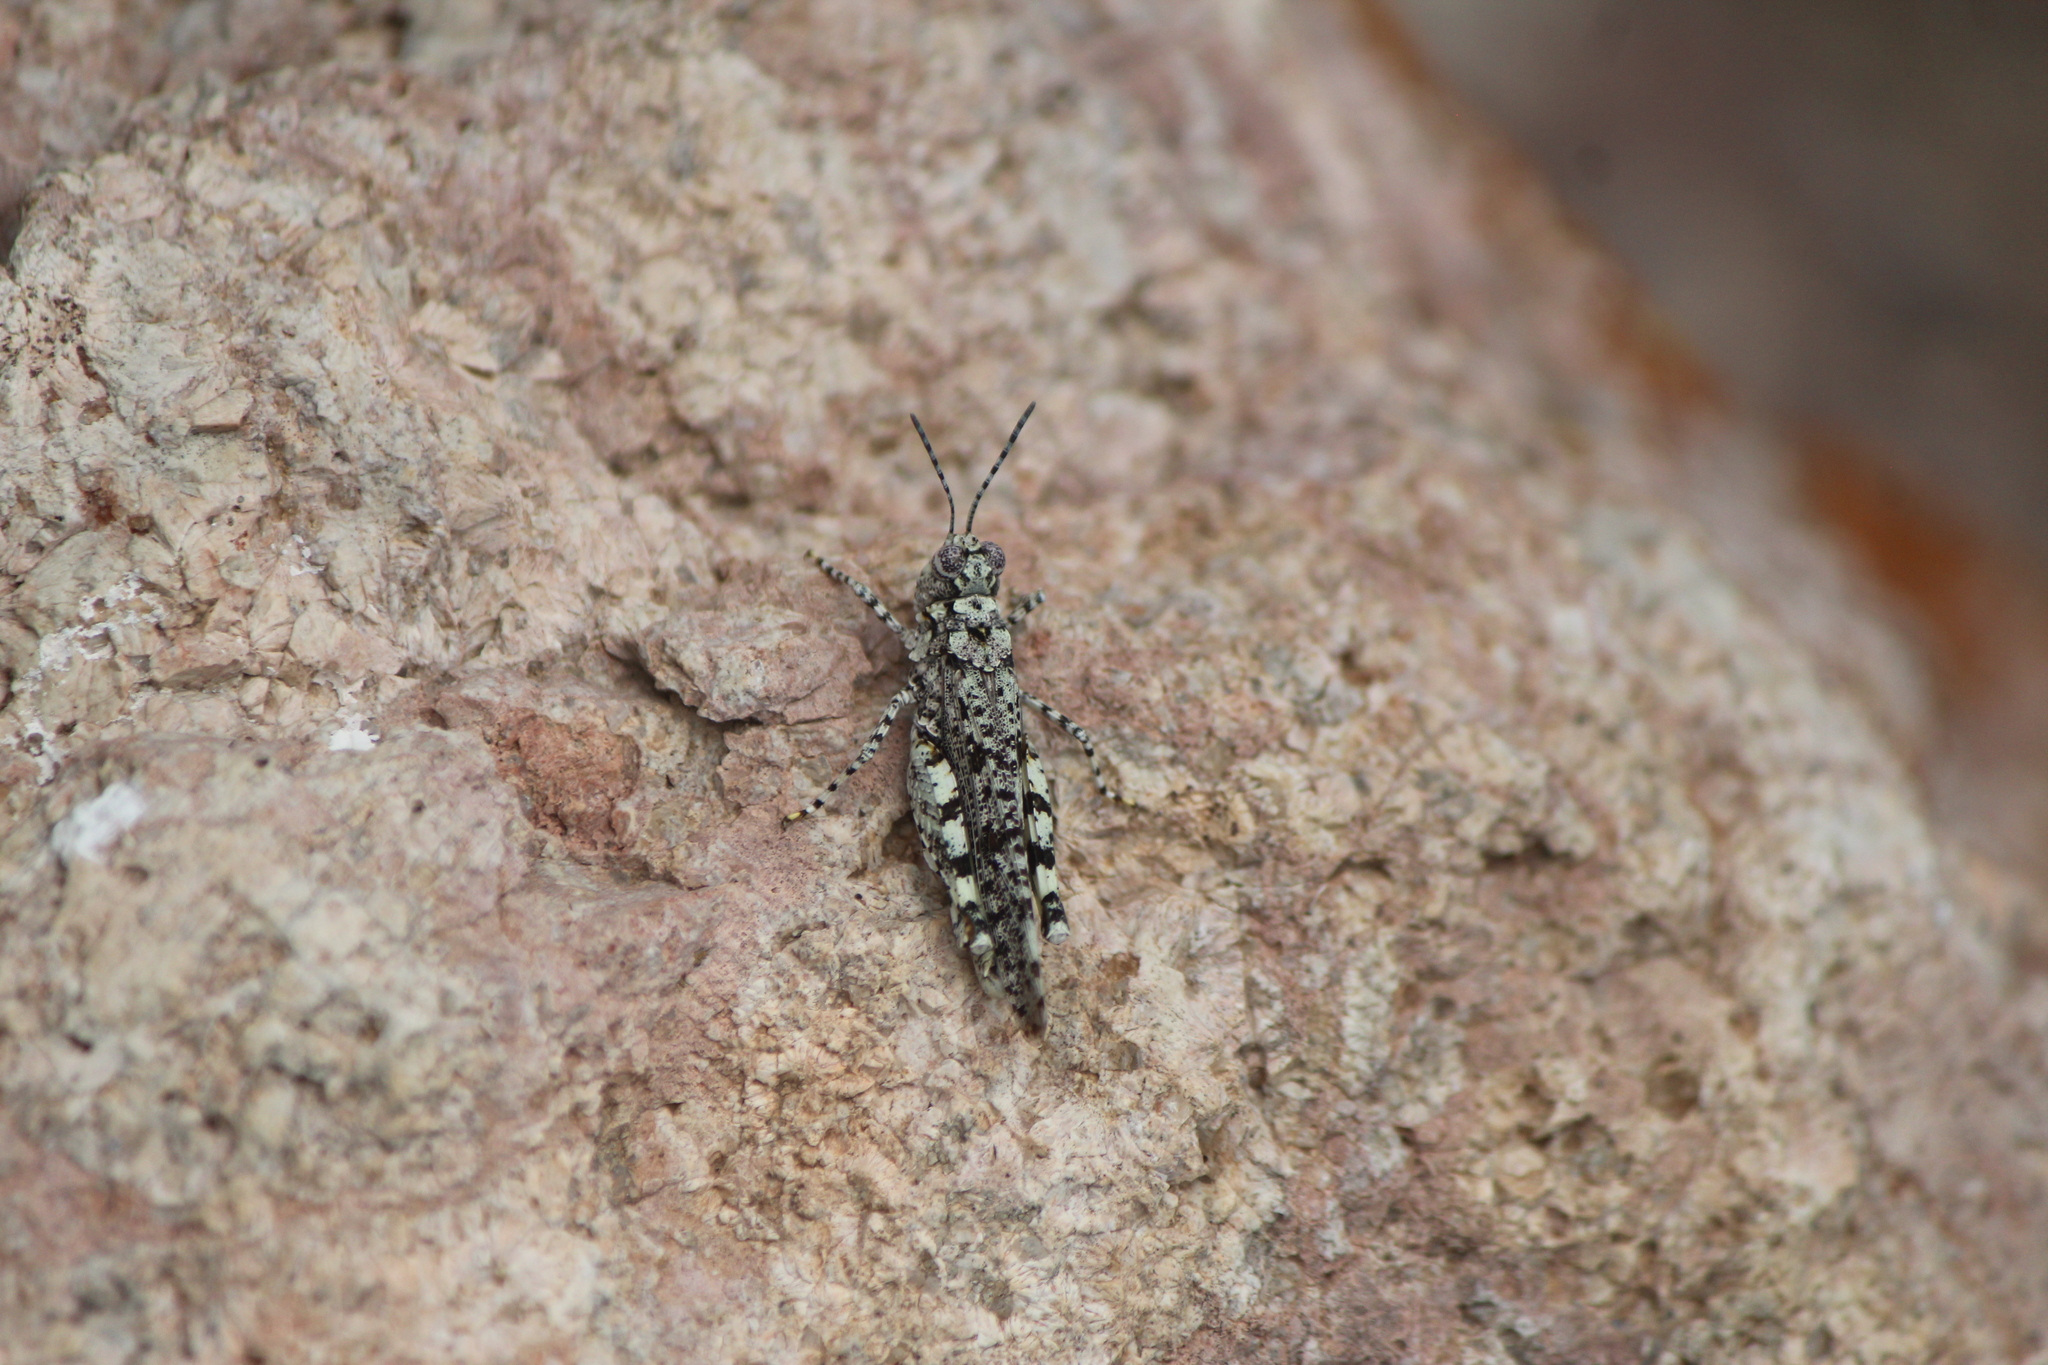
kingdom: Animalia
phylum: Arthropoda
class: Insecta
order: Orthoptera
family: Acrididae
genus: Leuronotina
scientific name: Leuronotina ritensis
